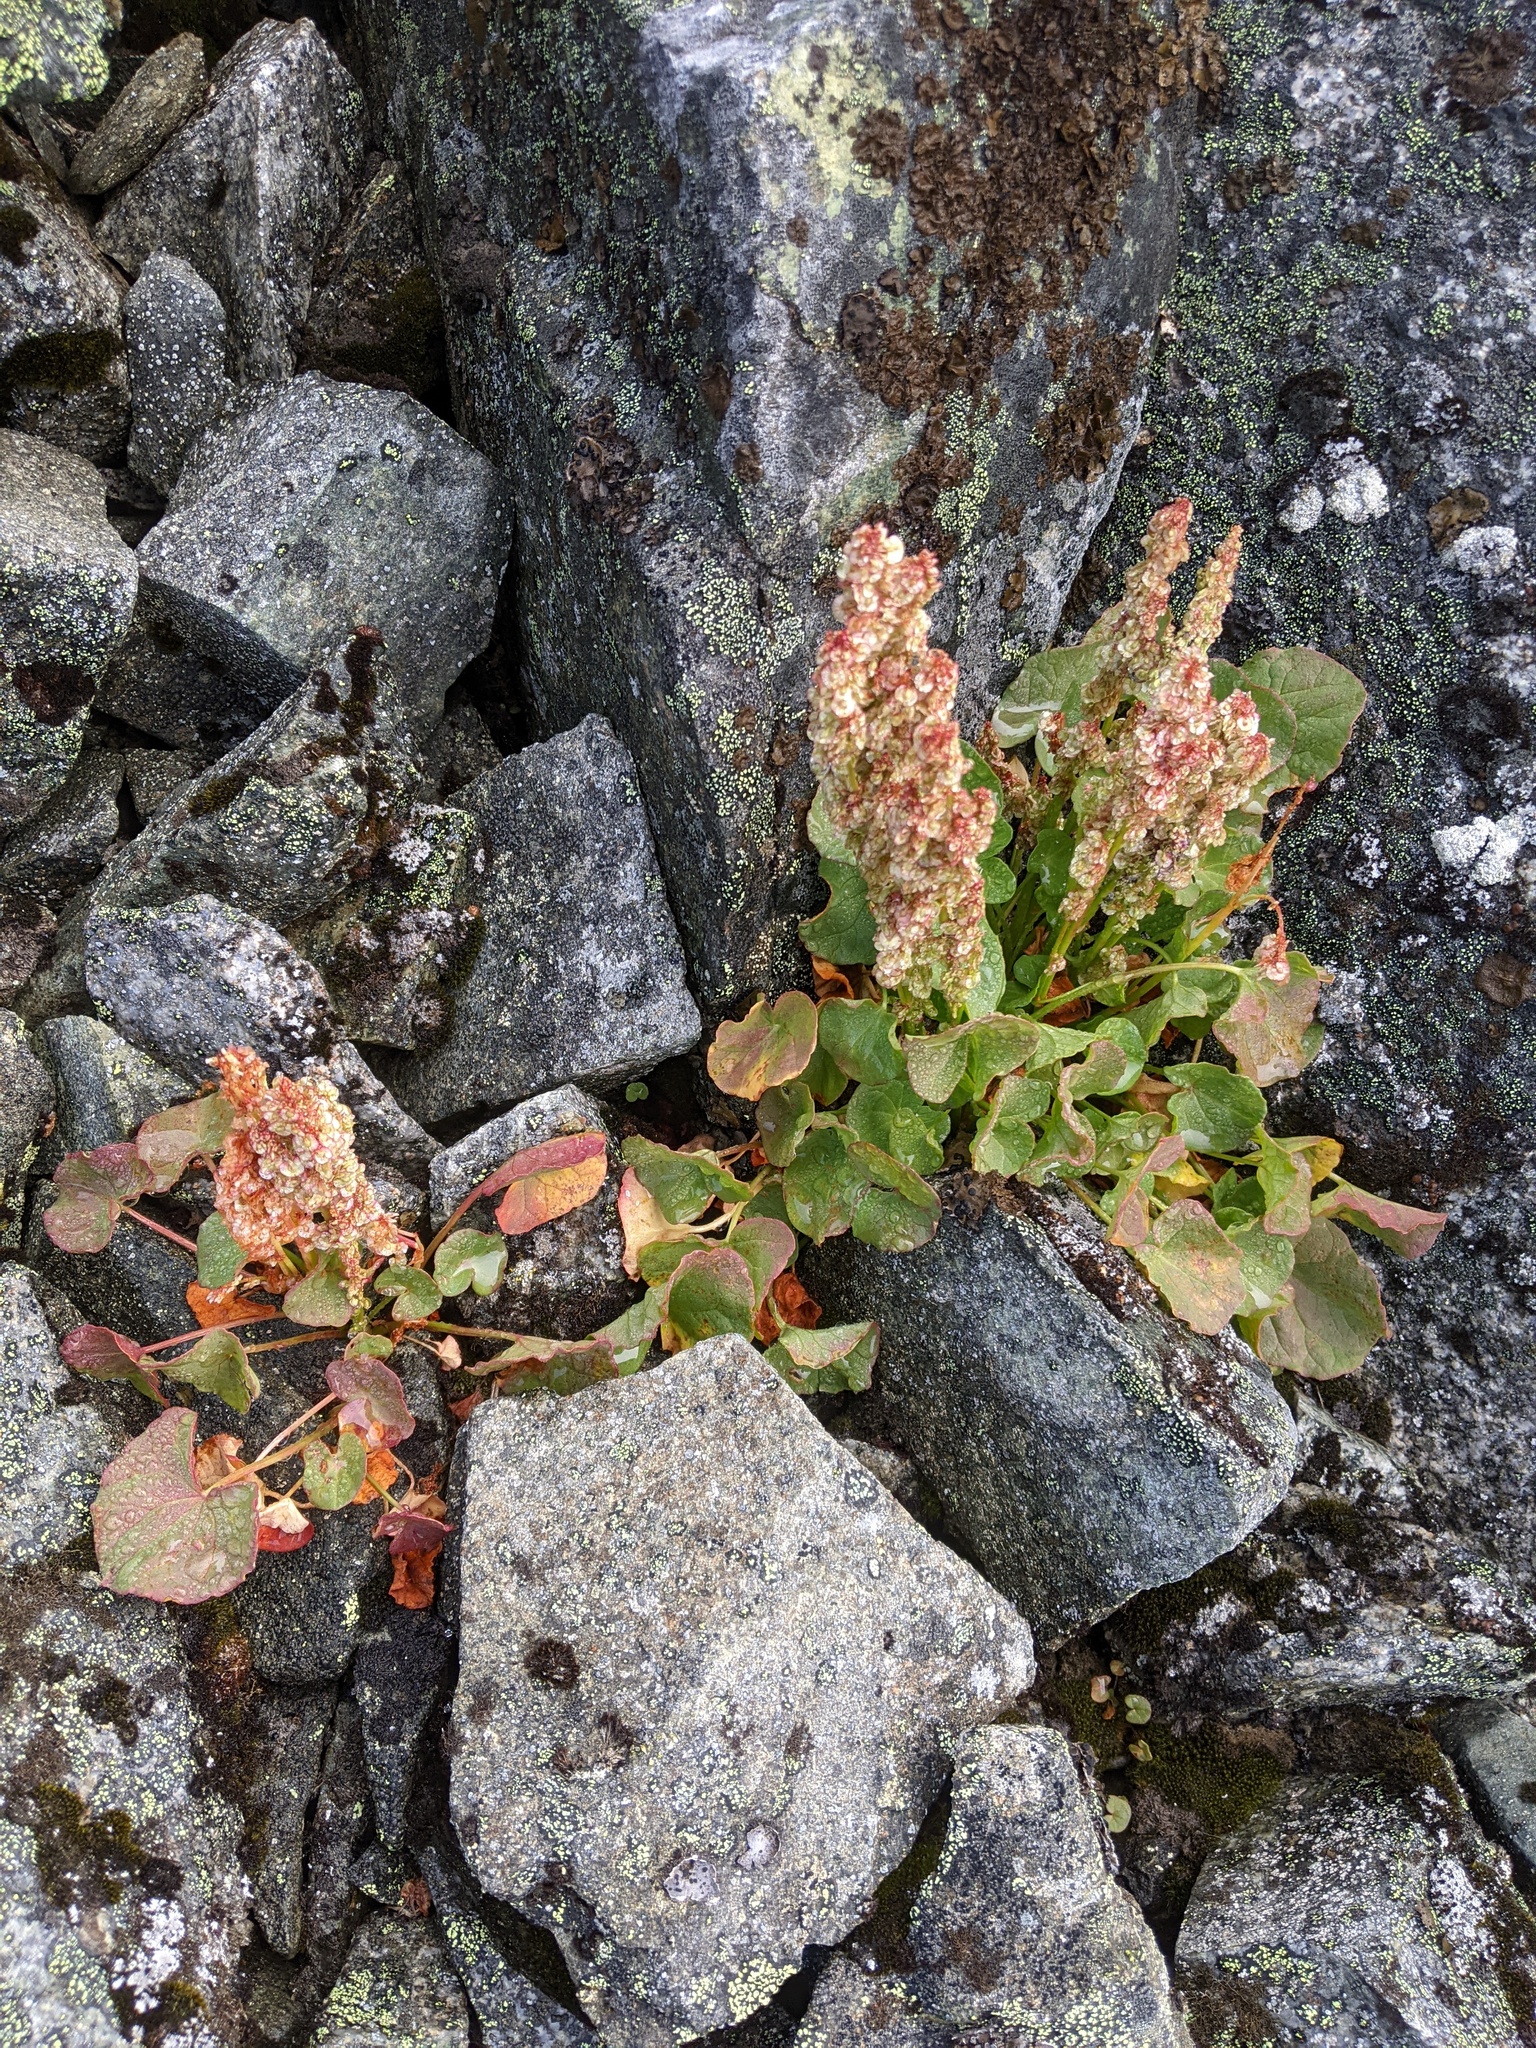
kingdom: Plantae
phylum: Tracheophyta
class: Magnoliopsida
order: Caryophyllales
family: Polygonaceae
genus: Oxyria
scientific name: Oxyria digyna
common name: Alpine mountain-sorrel
